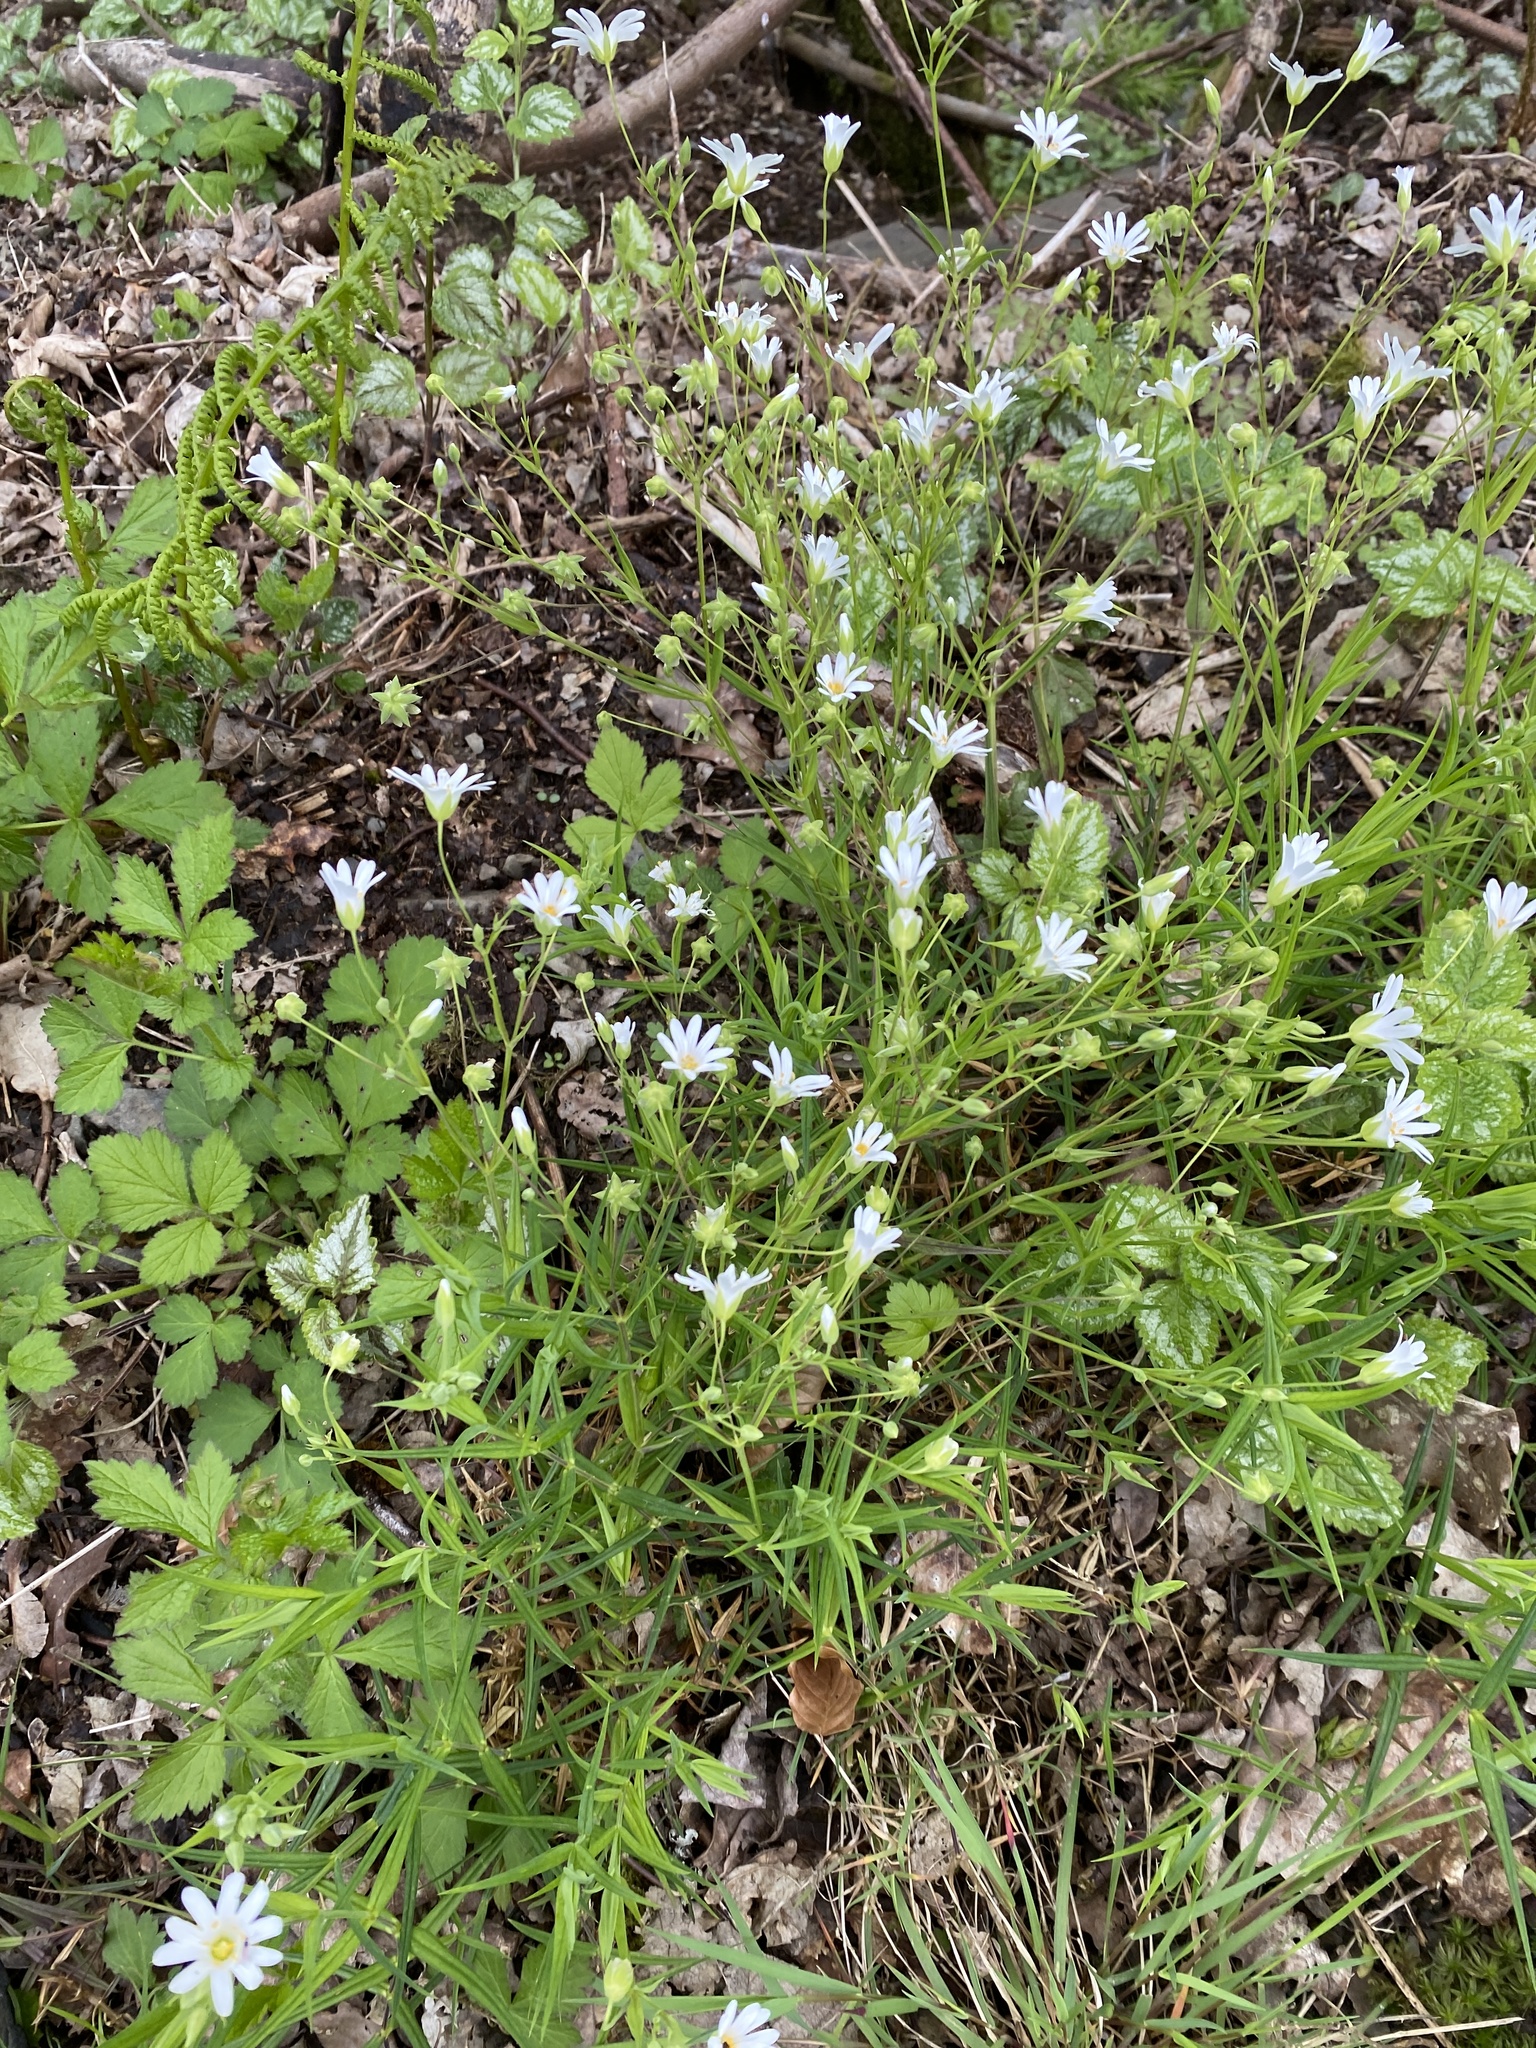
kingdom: Plantae
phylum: Tracheophyta
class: Magnoliopsida
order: Caryophyllales
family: Caryophyllaceae
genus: Rabelera
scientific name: Rabelera holostea
